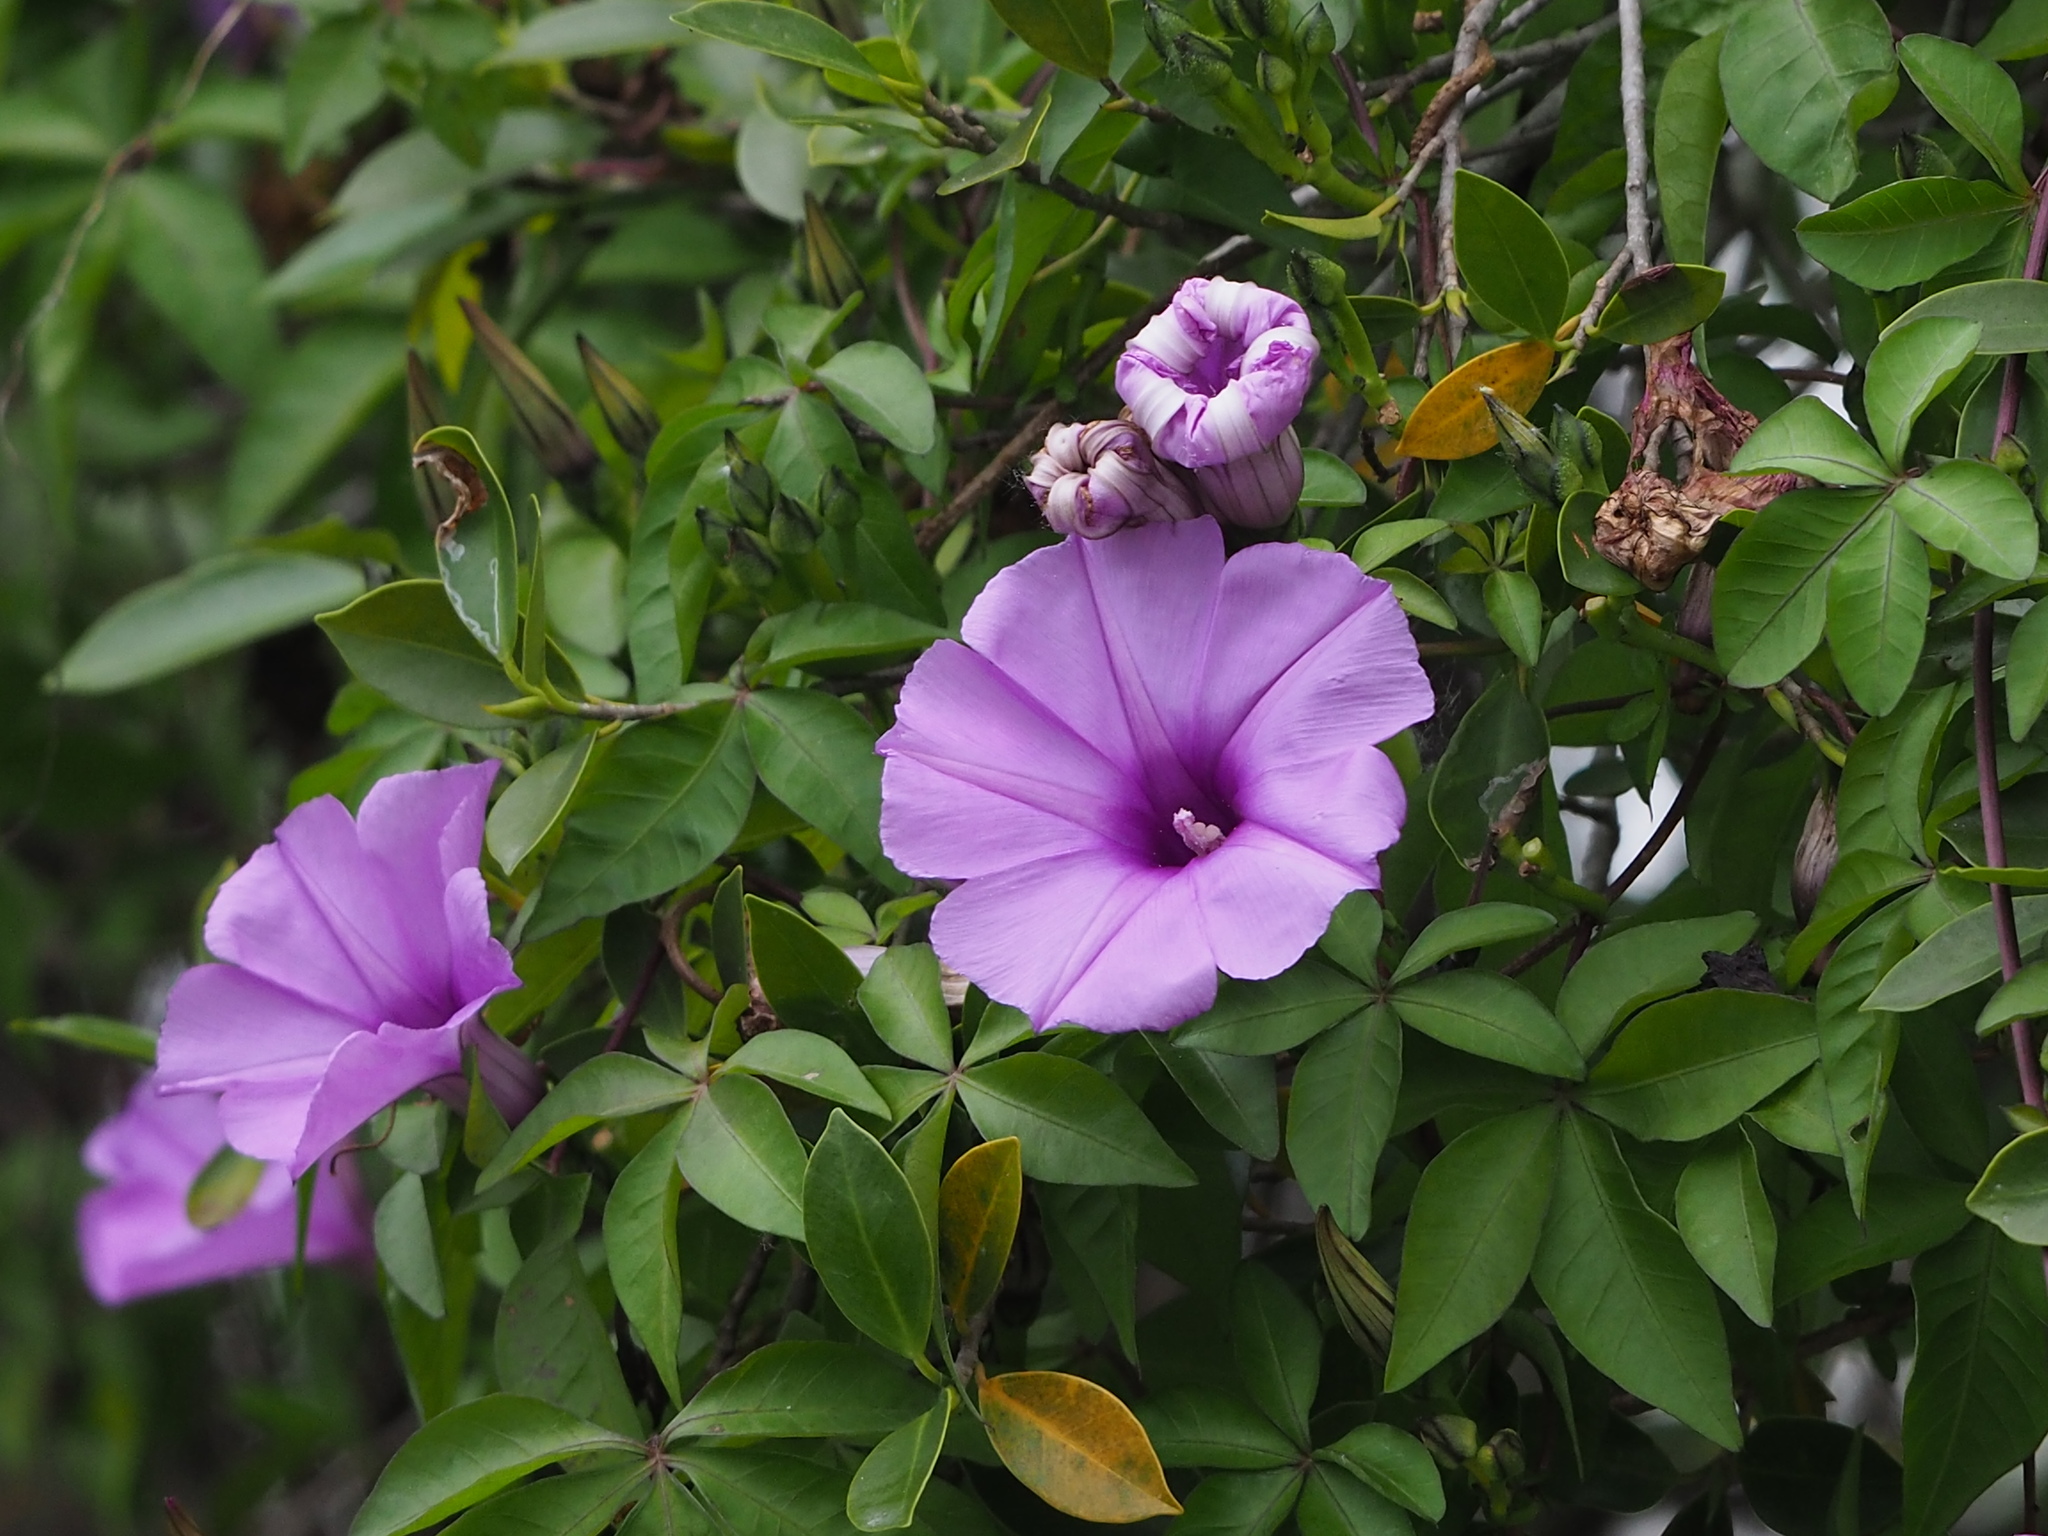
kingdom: Plantae
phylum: Tracheophyta
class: Magnoliopsida
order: Solanales
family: Convolvulaceae
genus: Ipomoea
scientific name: Ipomoea cairica
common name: Mile a minute vine
